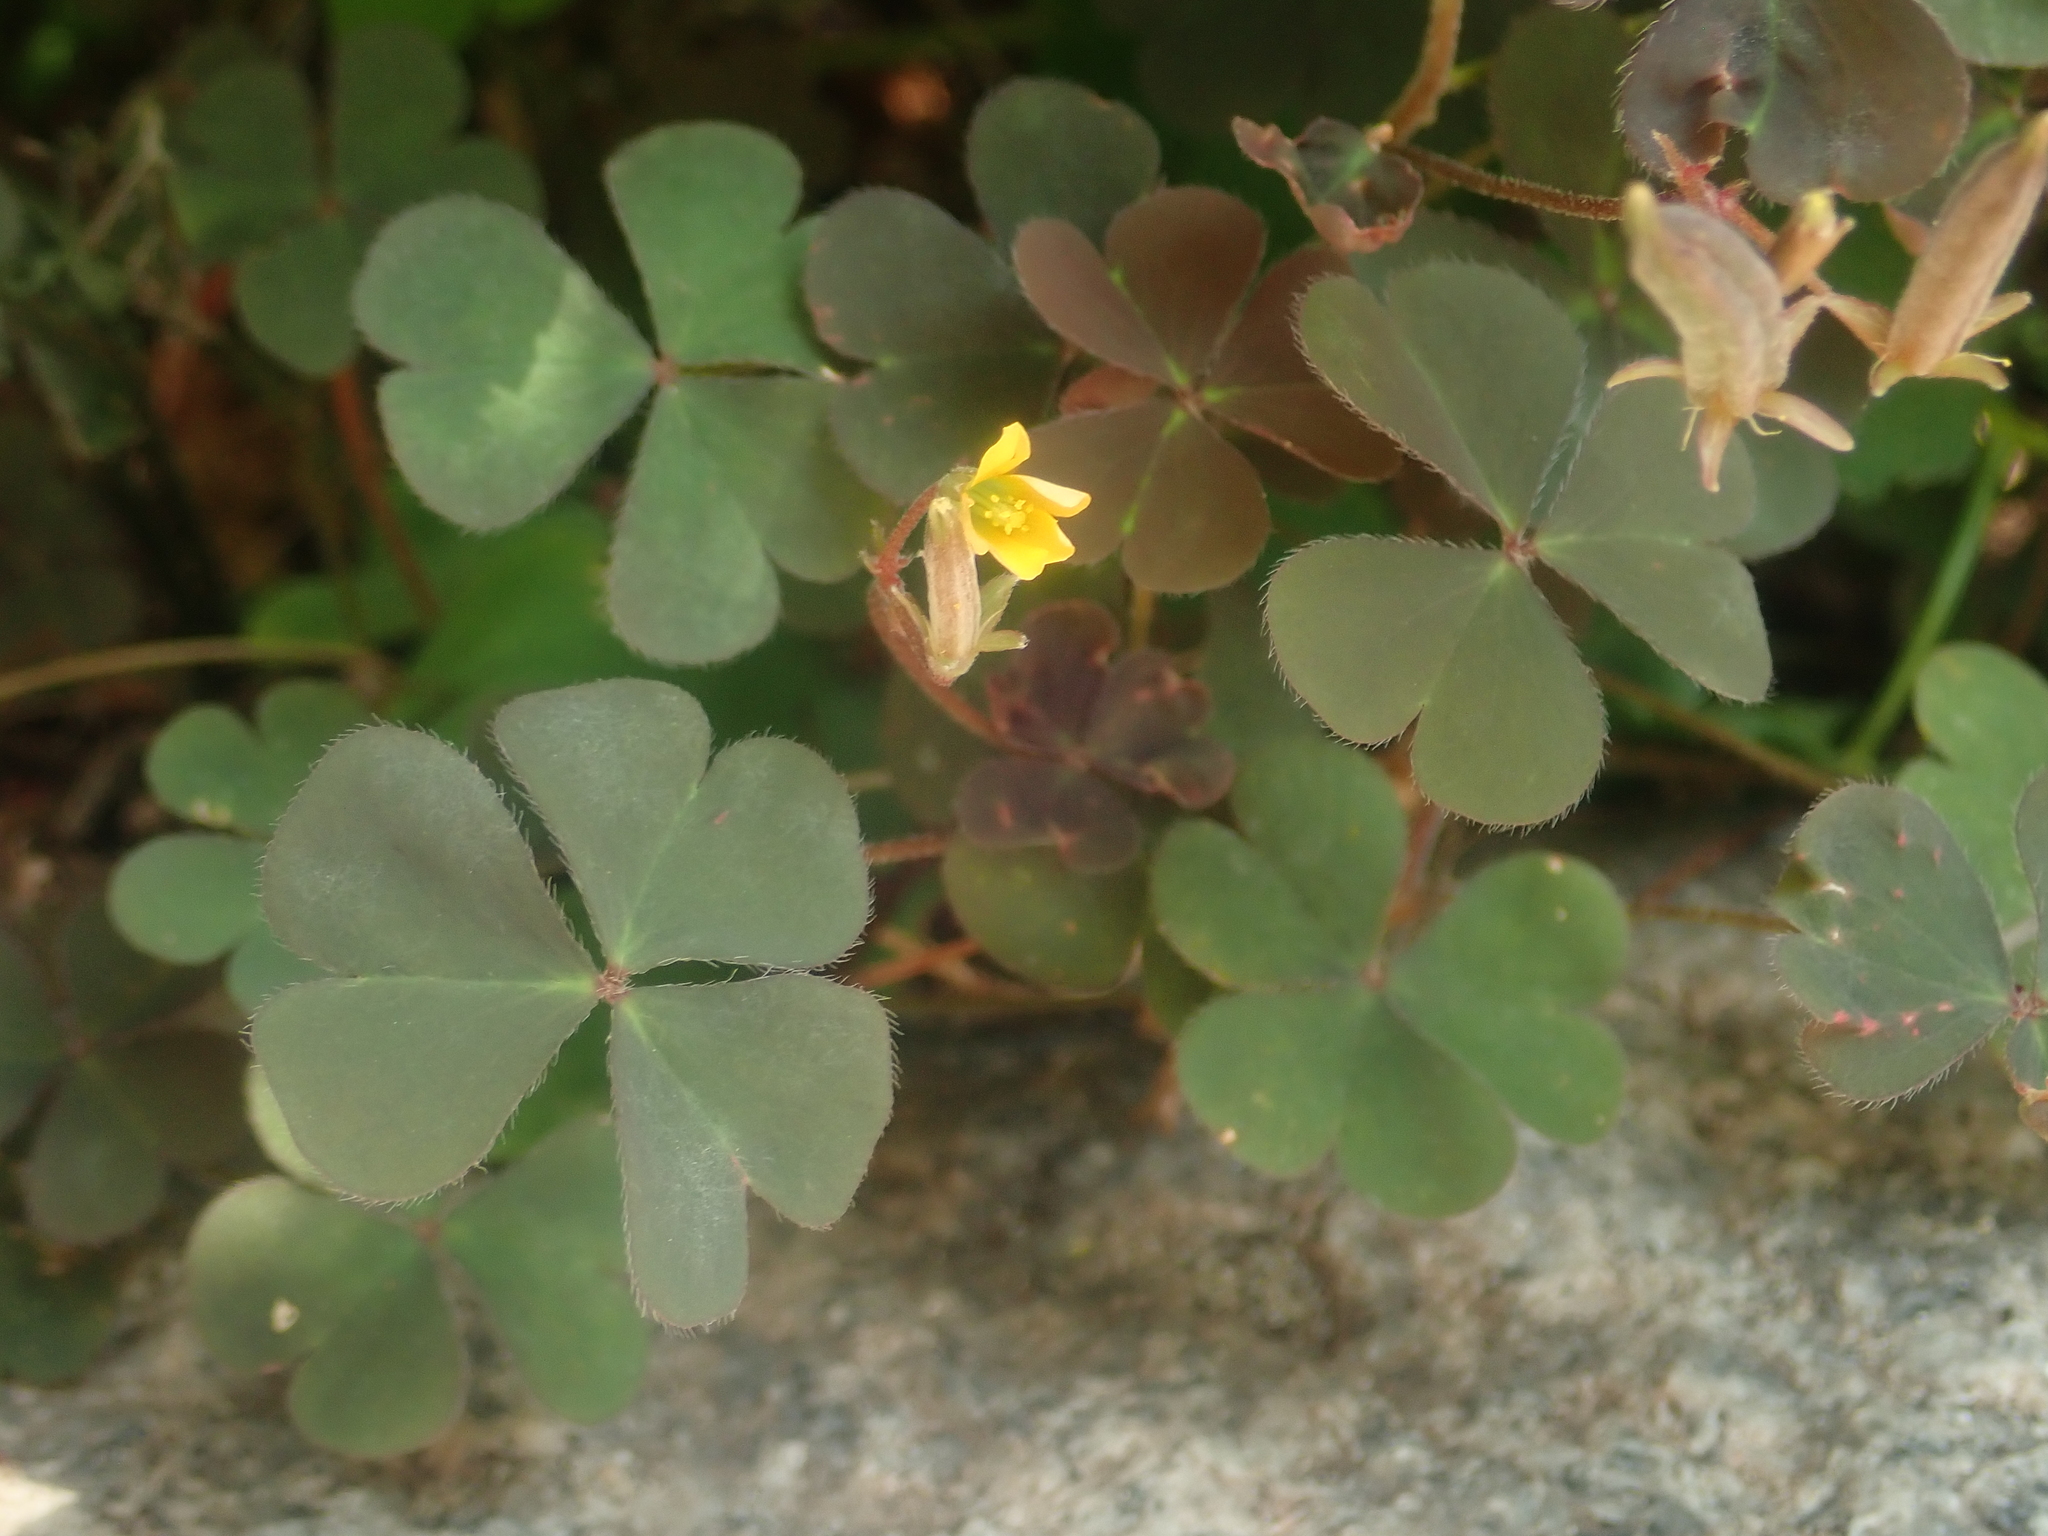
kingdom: Plantae
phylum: Tracheophyta
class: Magnoliopsida
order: Oxalidales
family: Oxalidaceae
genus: Oxalis
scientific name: Oxalis corniculata
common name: Procumbent yellow-sorrel
